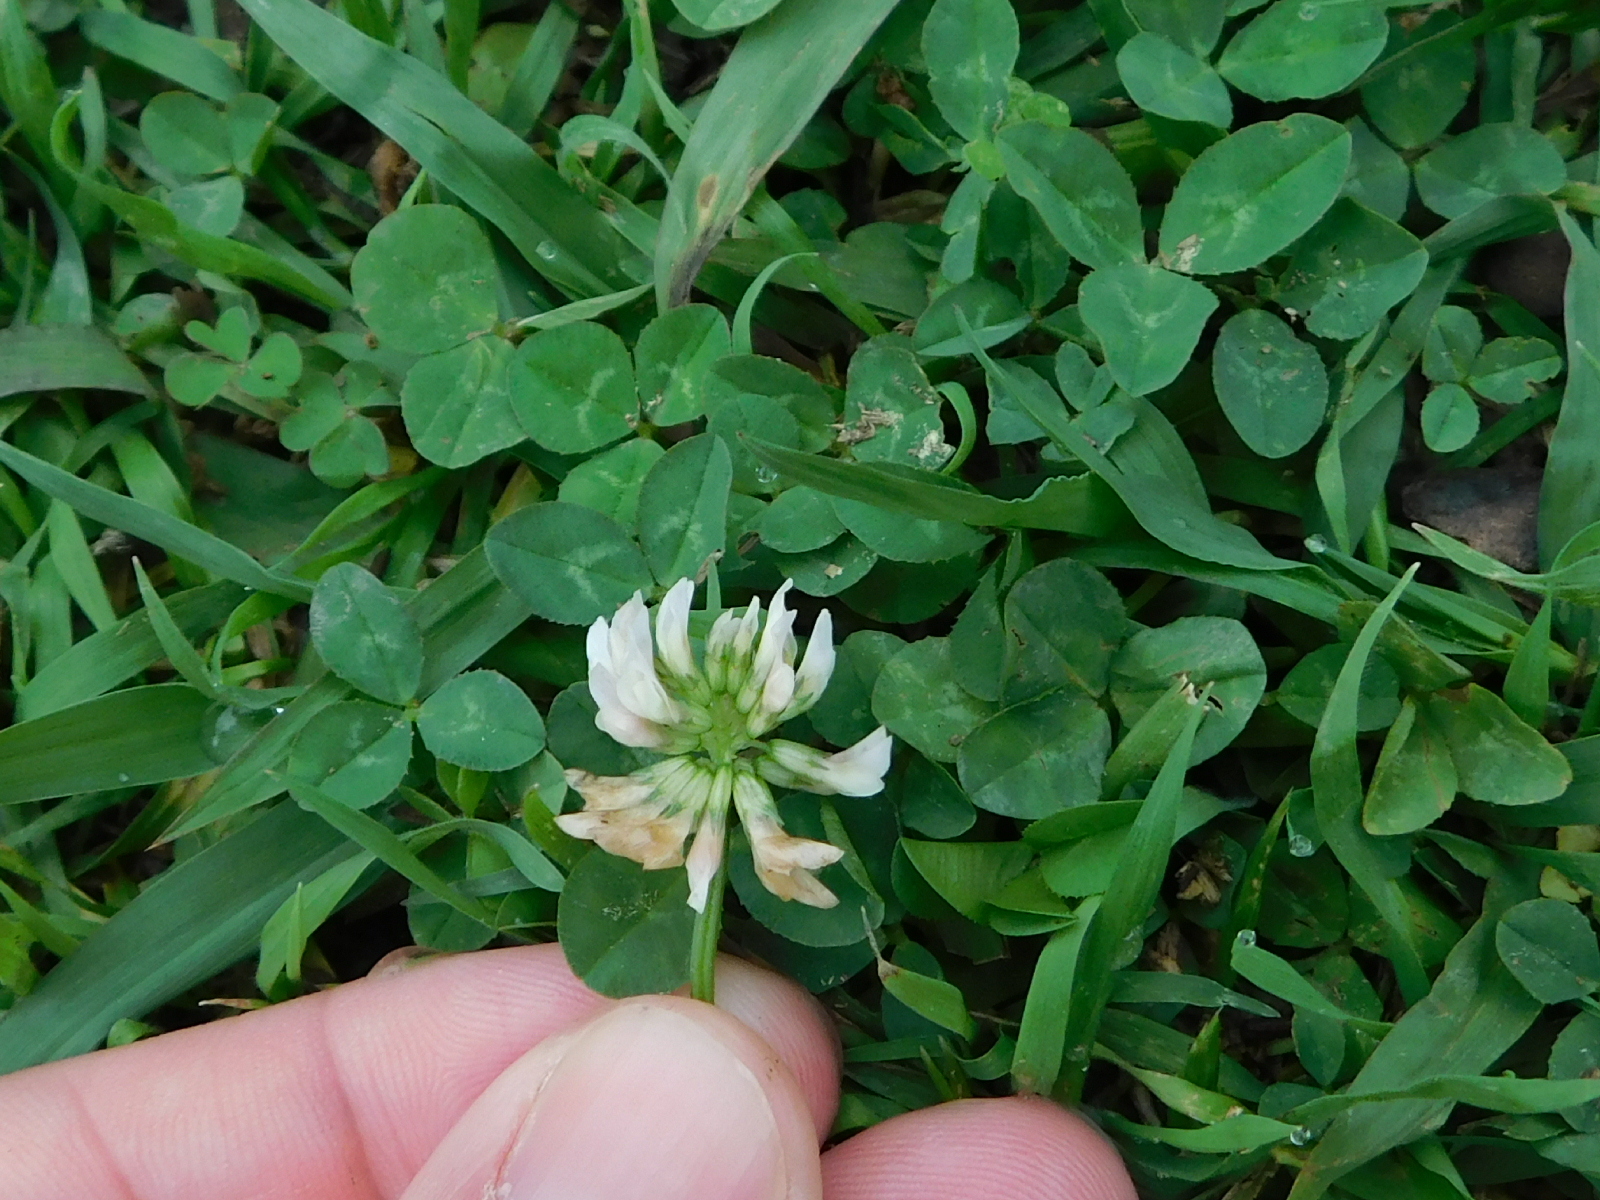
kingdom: Plantae
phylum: Tracheophyta
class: Magnoliopsida
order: Fabales
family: Fabaceae
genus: Trifolium
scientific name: Trifolium repens
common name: White clover
